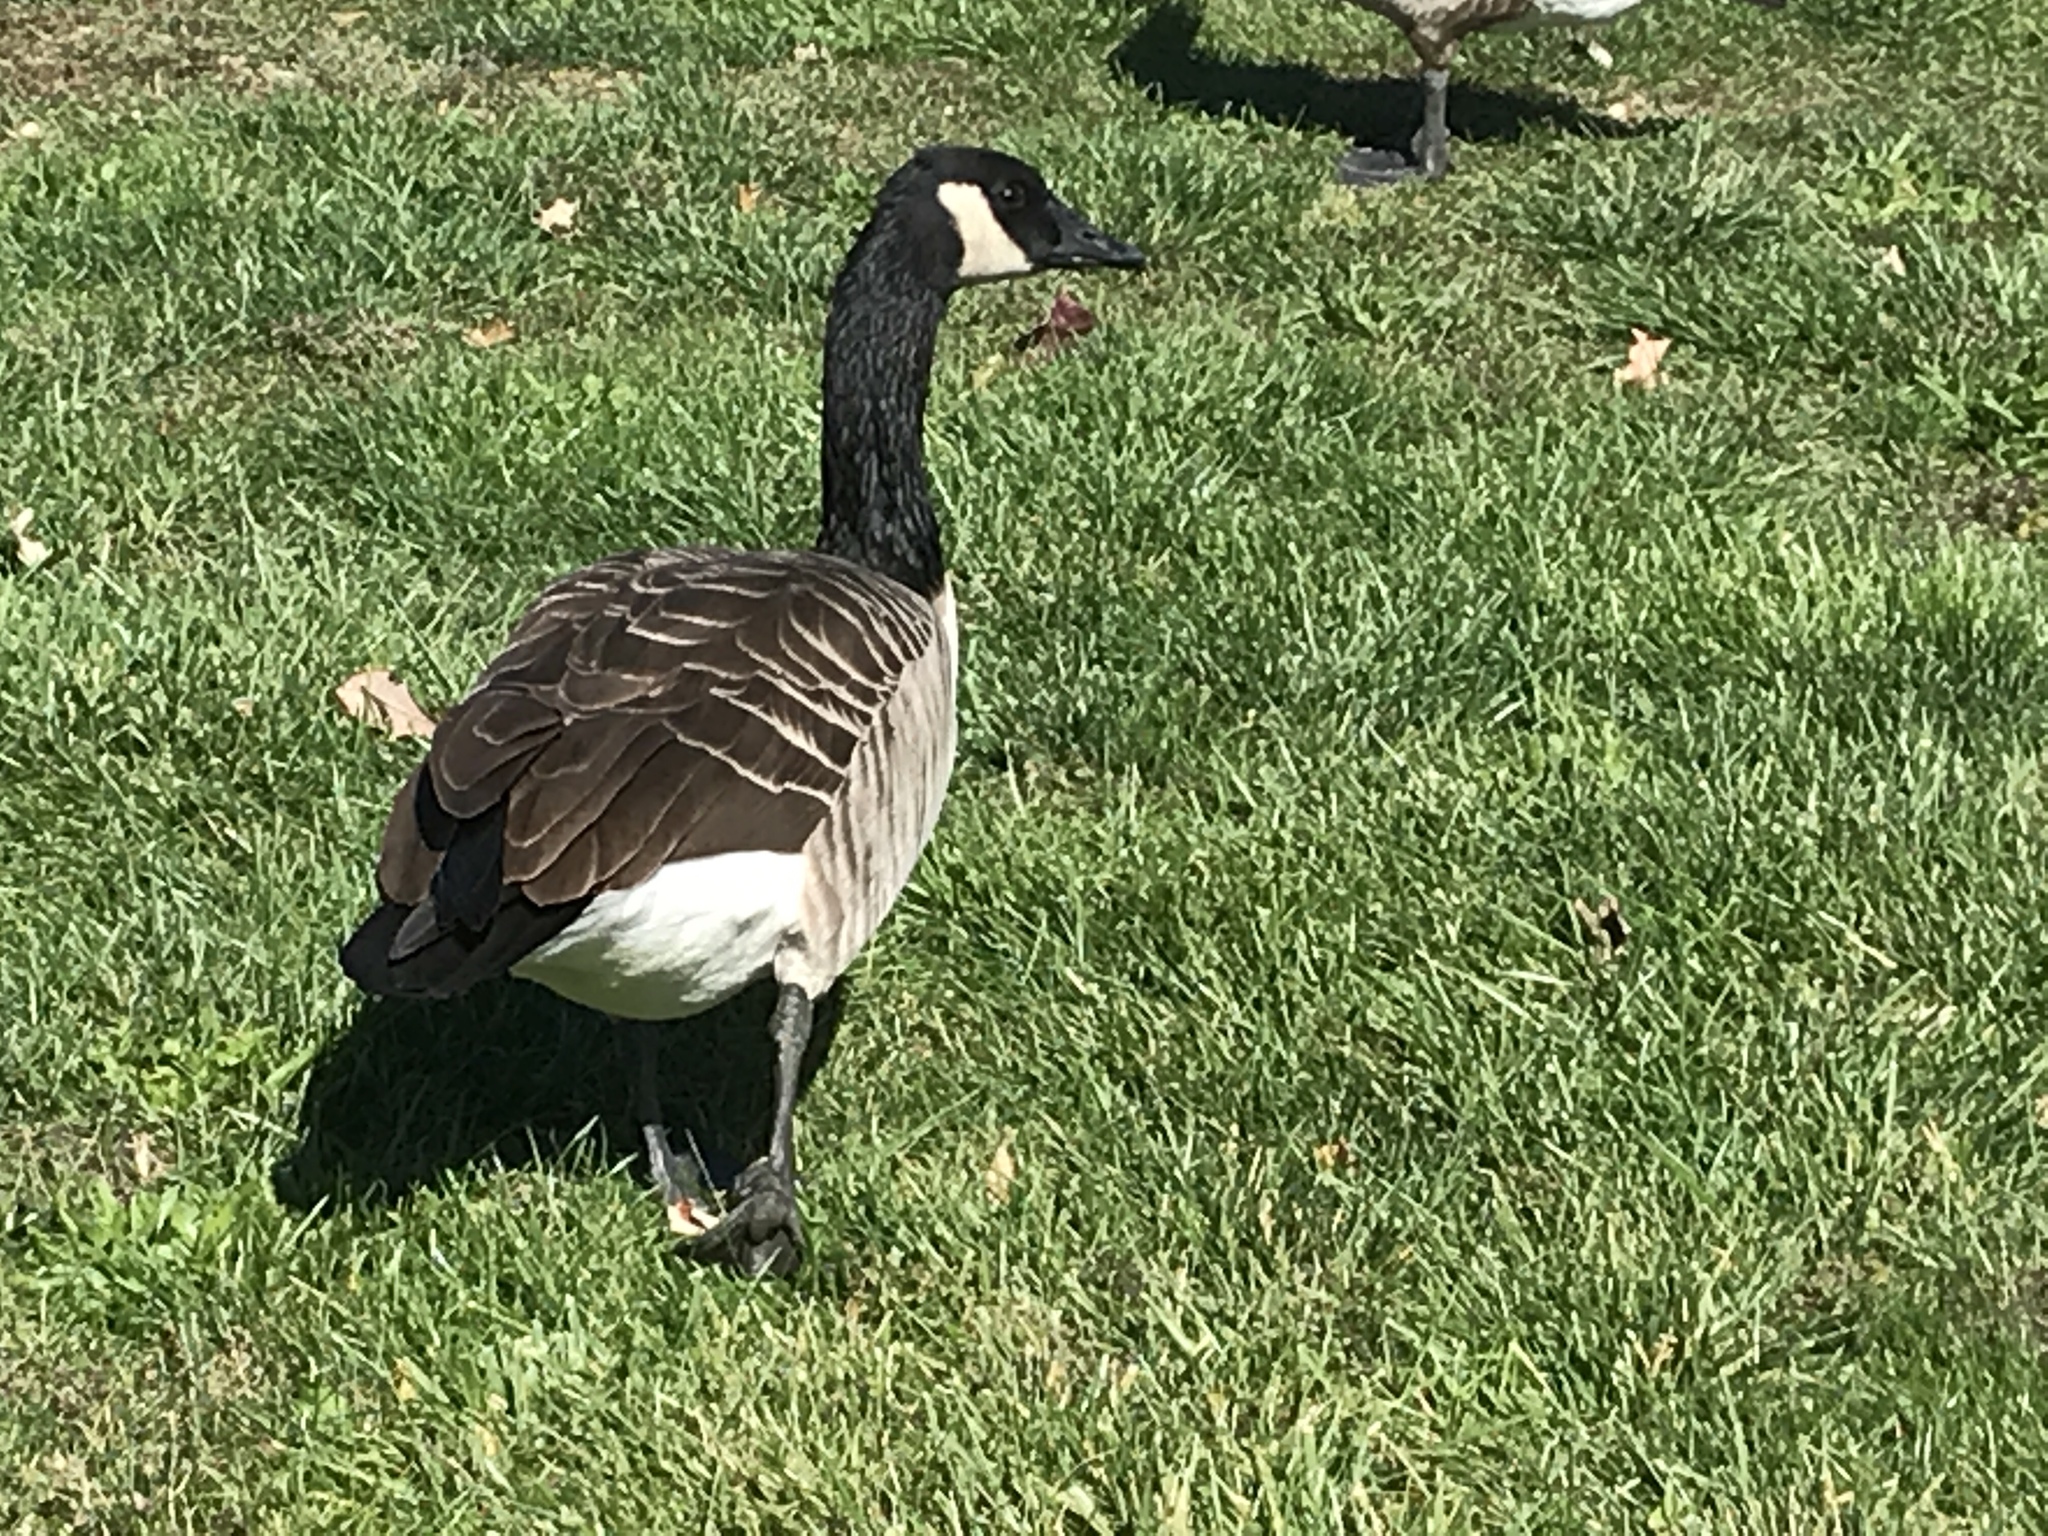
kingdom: Animalia
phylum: Chordata
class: Aves
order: Anseriformes
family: Anatidae
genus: Branta
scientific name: Branta canadensis
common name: Canada goose
